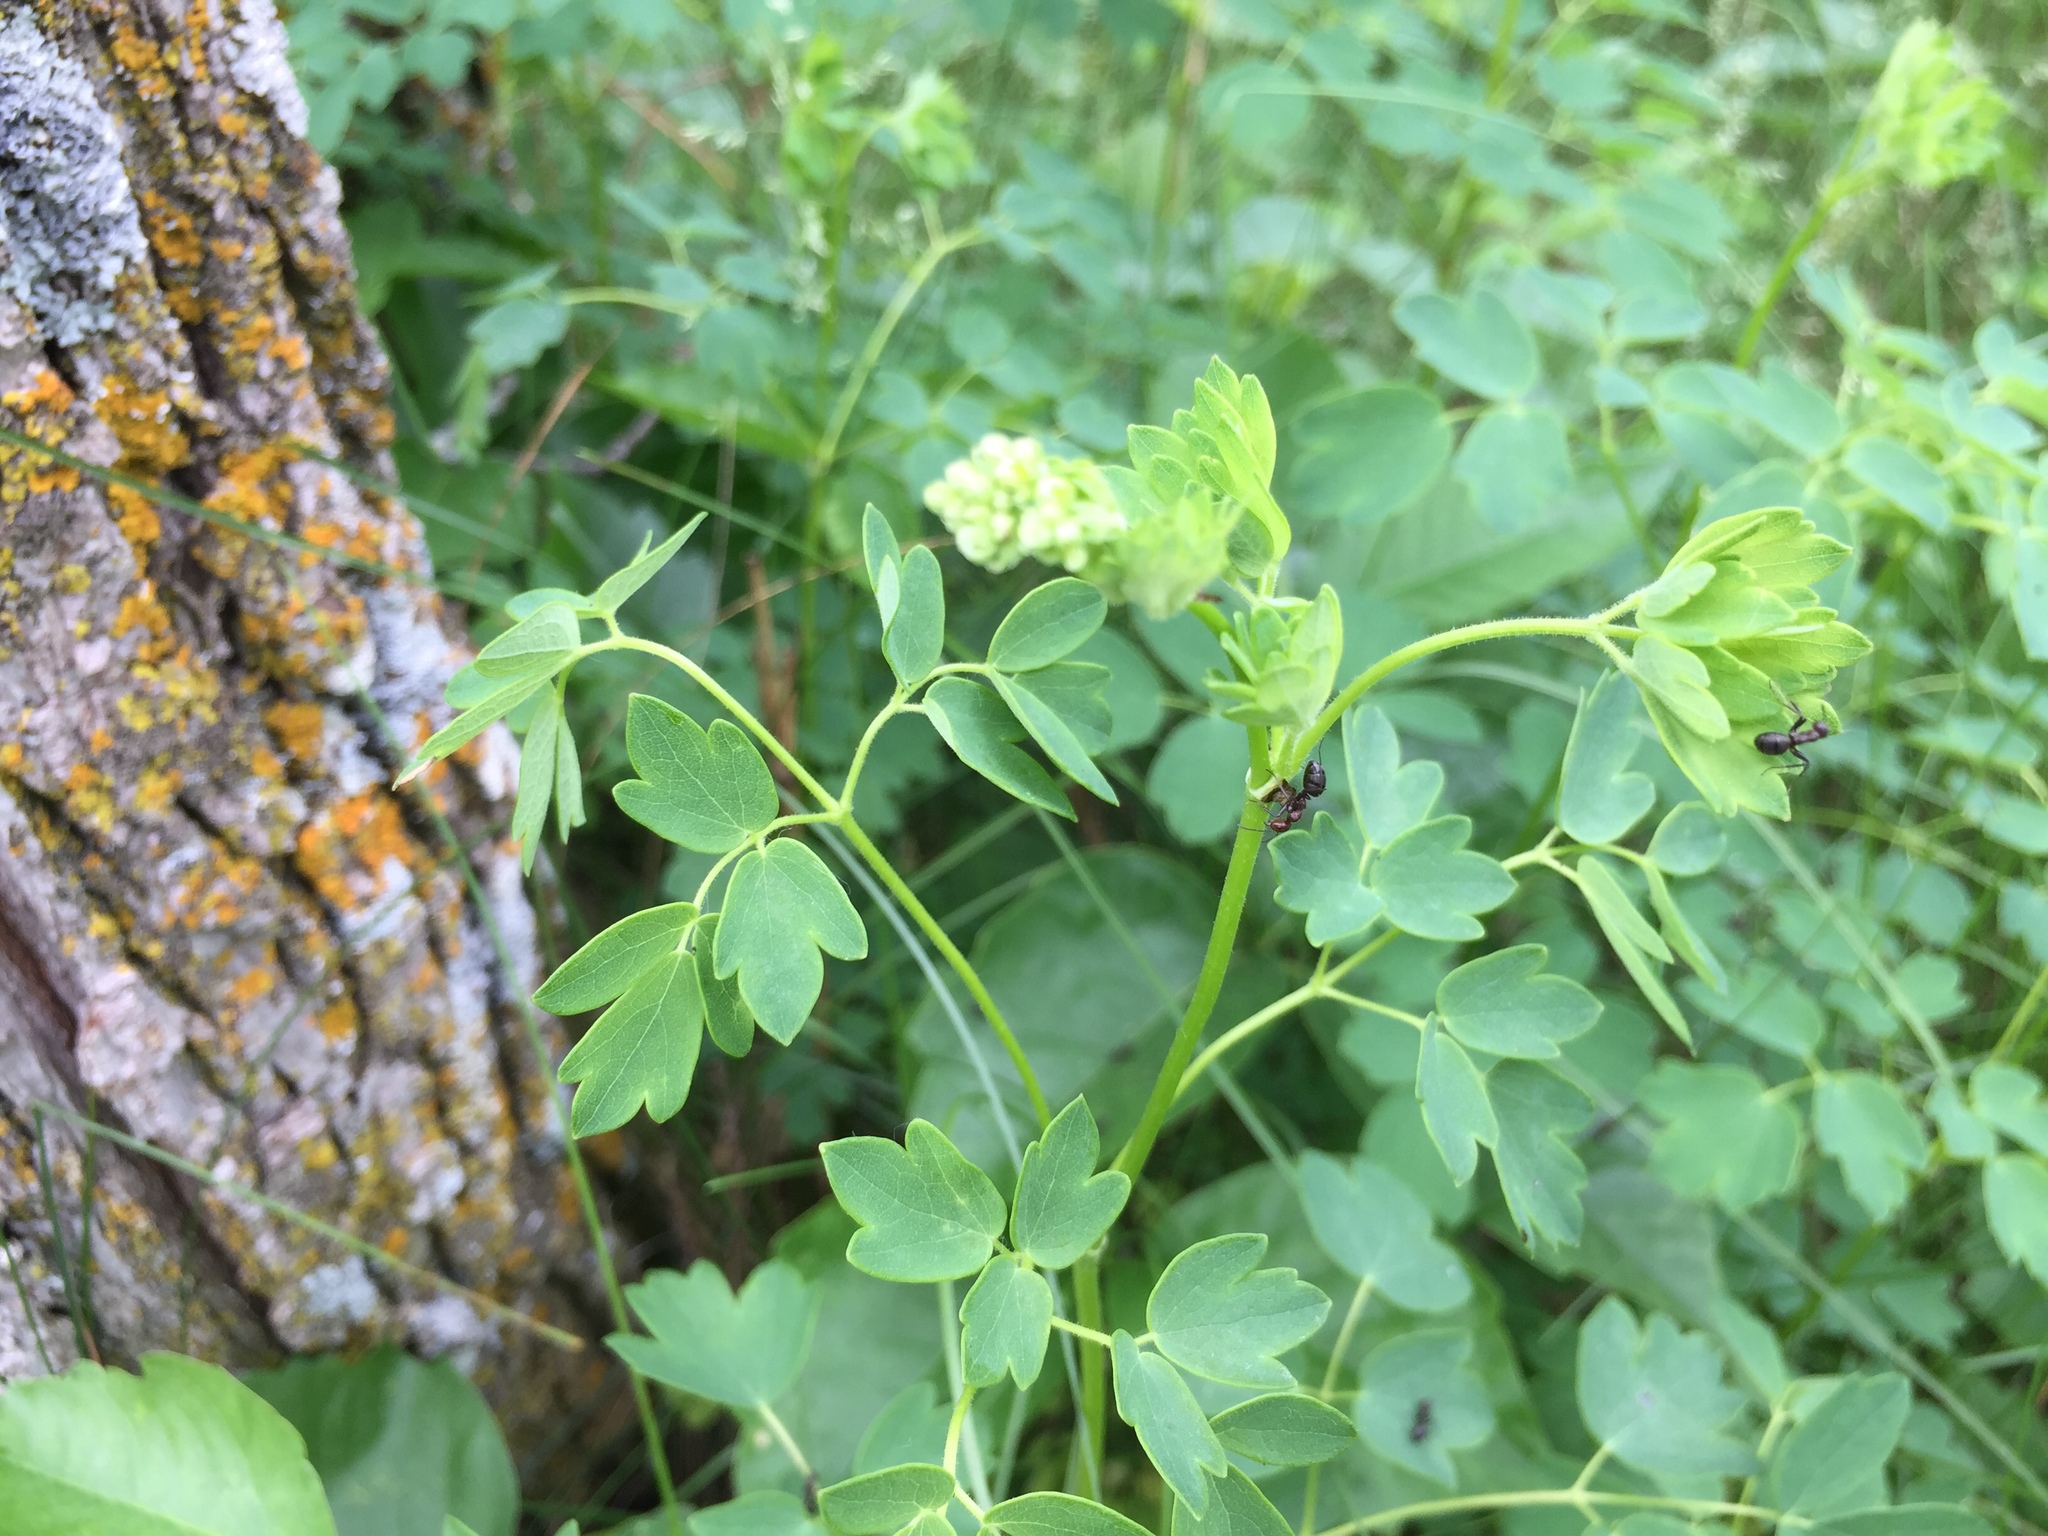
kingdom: Plantae
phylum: Tracheophyta
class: Magnoliopsida
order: Ranunculales
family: Ranunculaceae
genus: Thalictrum
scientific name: Thalictrum dasycarpum
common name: Purple meadow-rue
